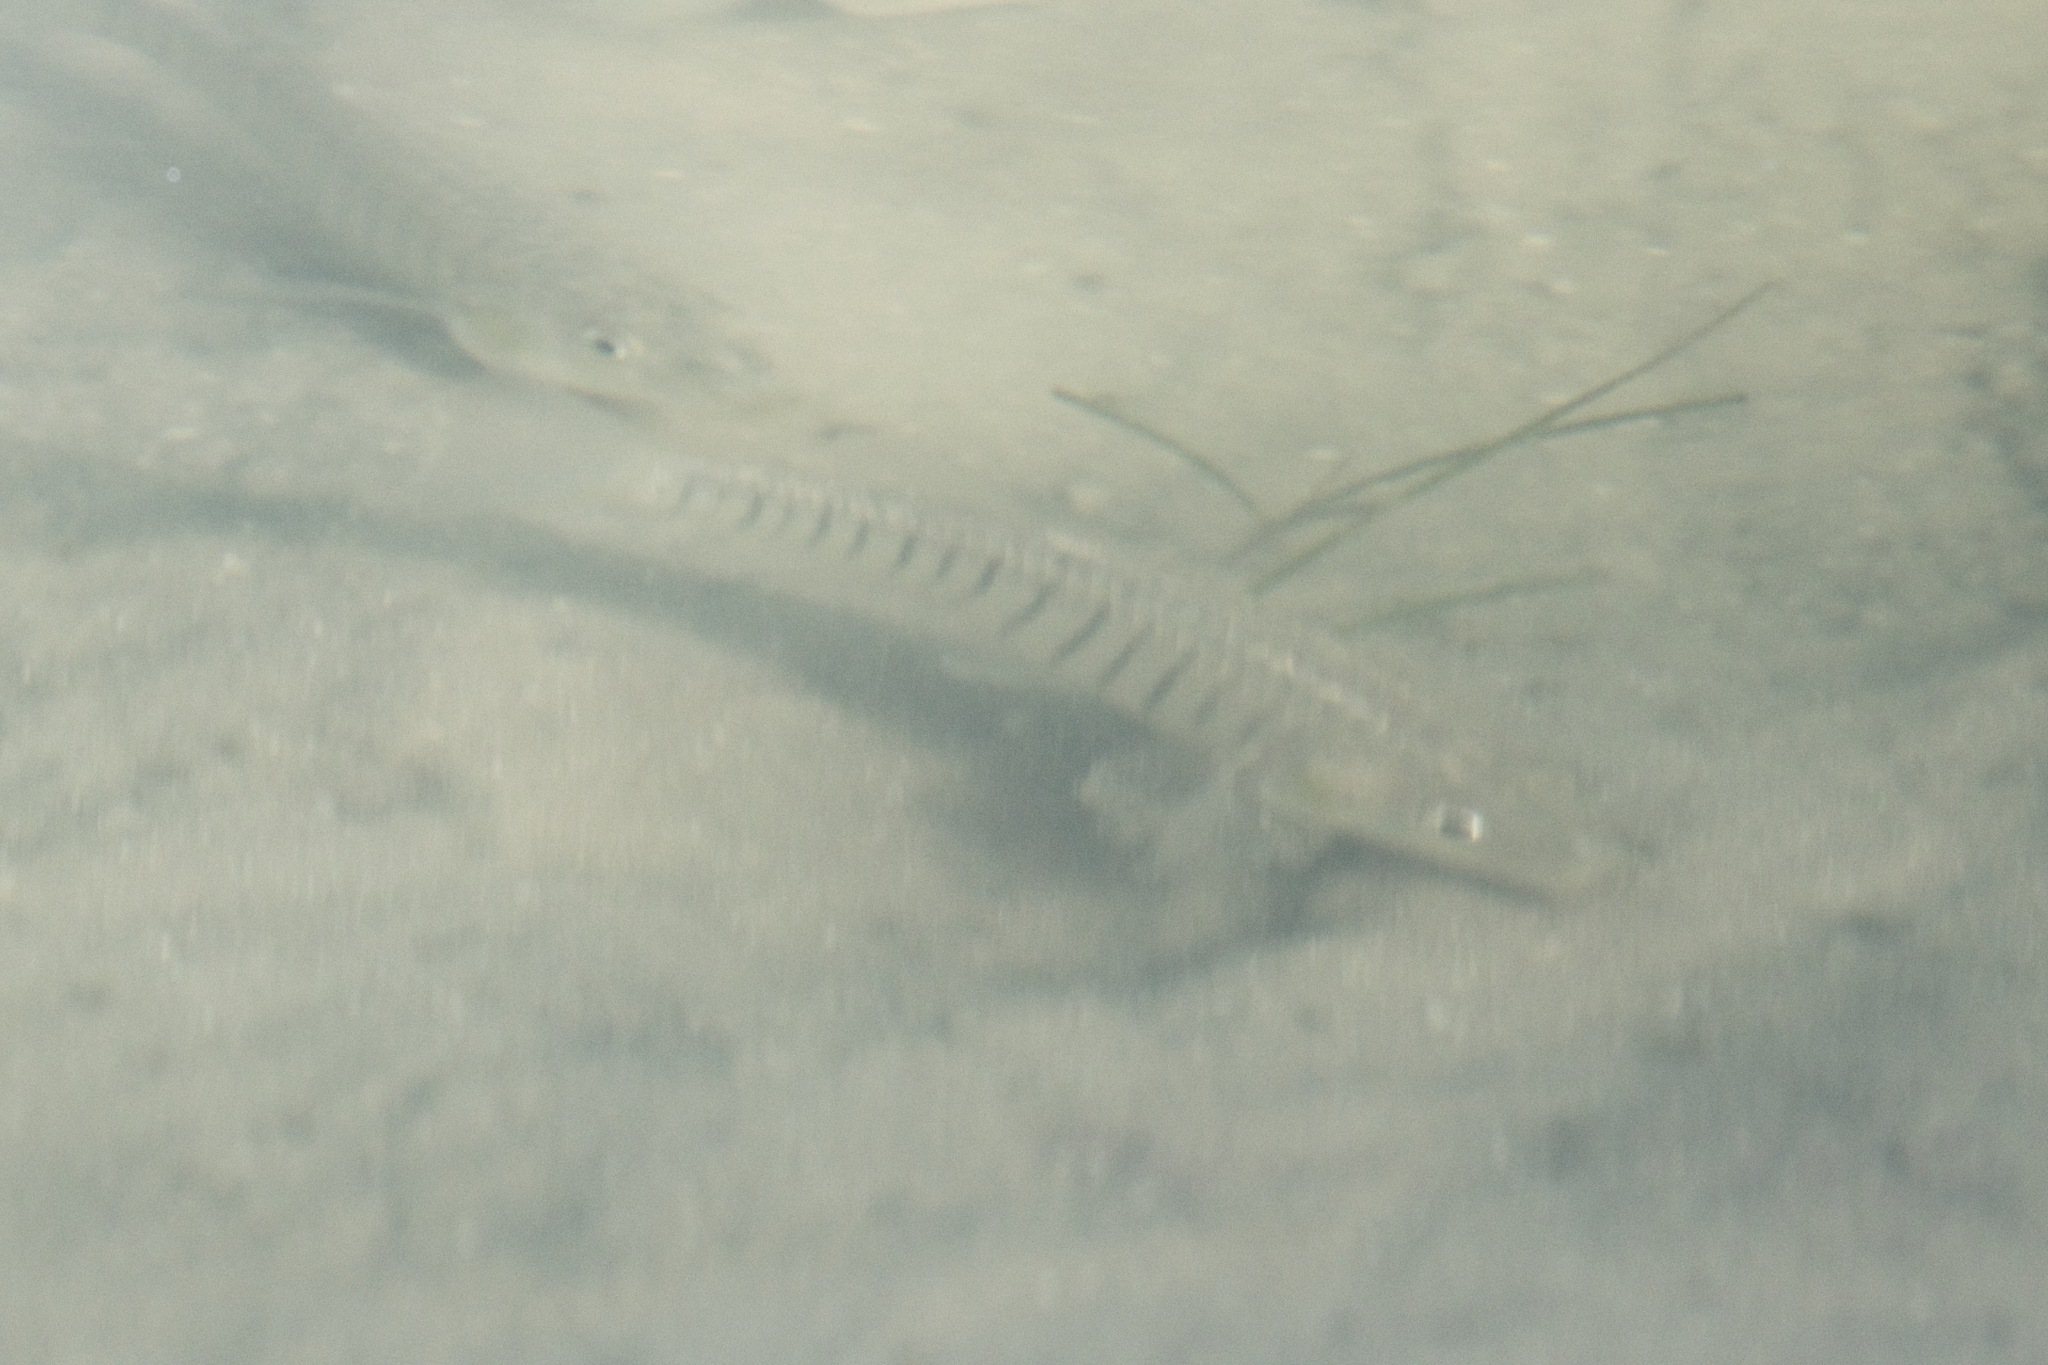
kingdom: Animalia
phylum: Chordata
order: Cyprinodontiformes
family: Fundulidae
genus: Fundulus
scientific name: Fundulus similis
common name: Longnose killifish
